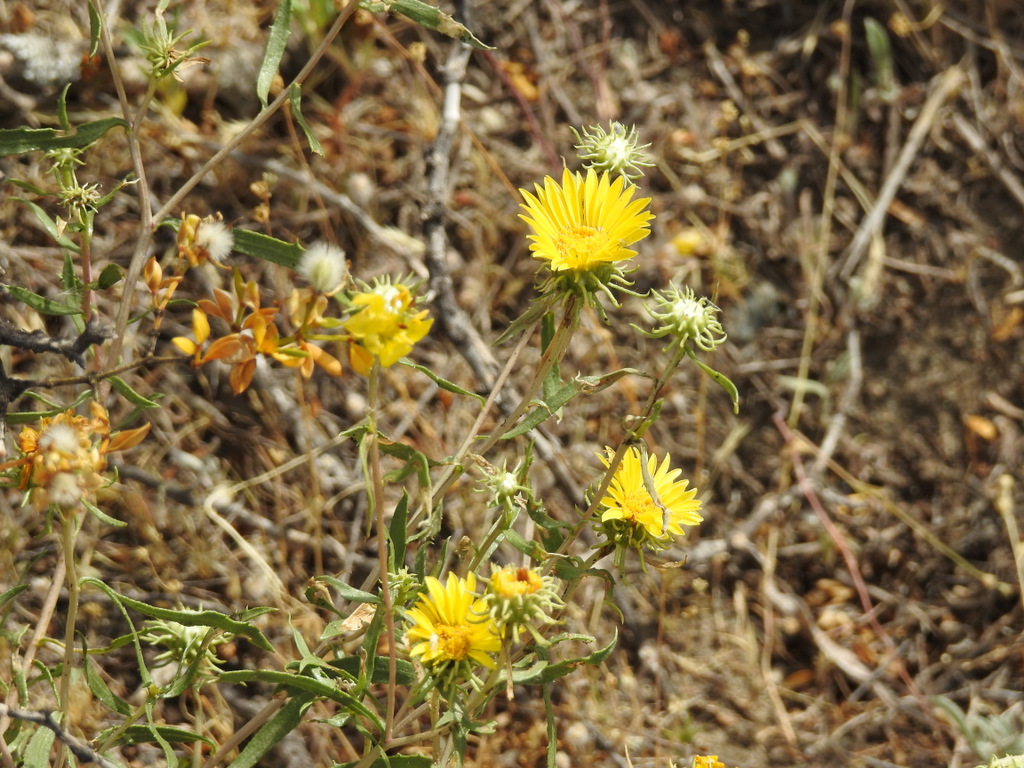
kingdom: Plantae
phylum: Tracheophyta
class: Magnoliopsida
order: Asterales
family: Asteraceae
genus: Grindelia
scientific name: Grindelia pulchella
